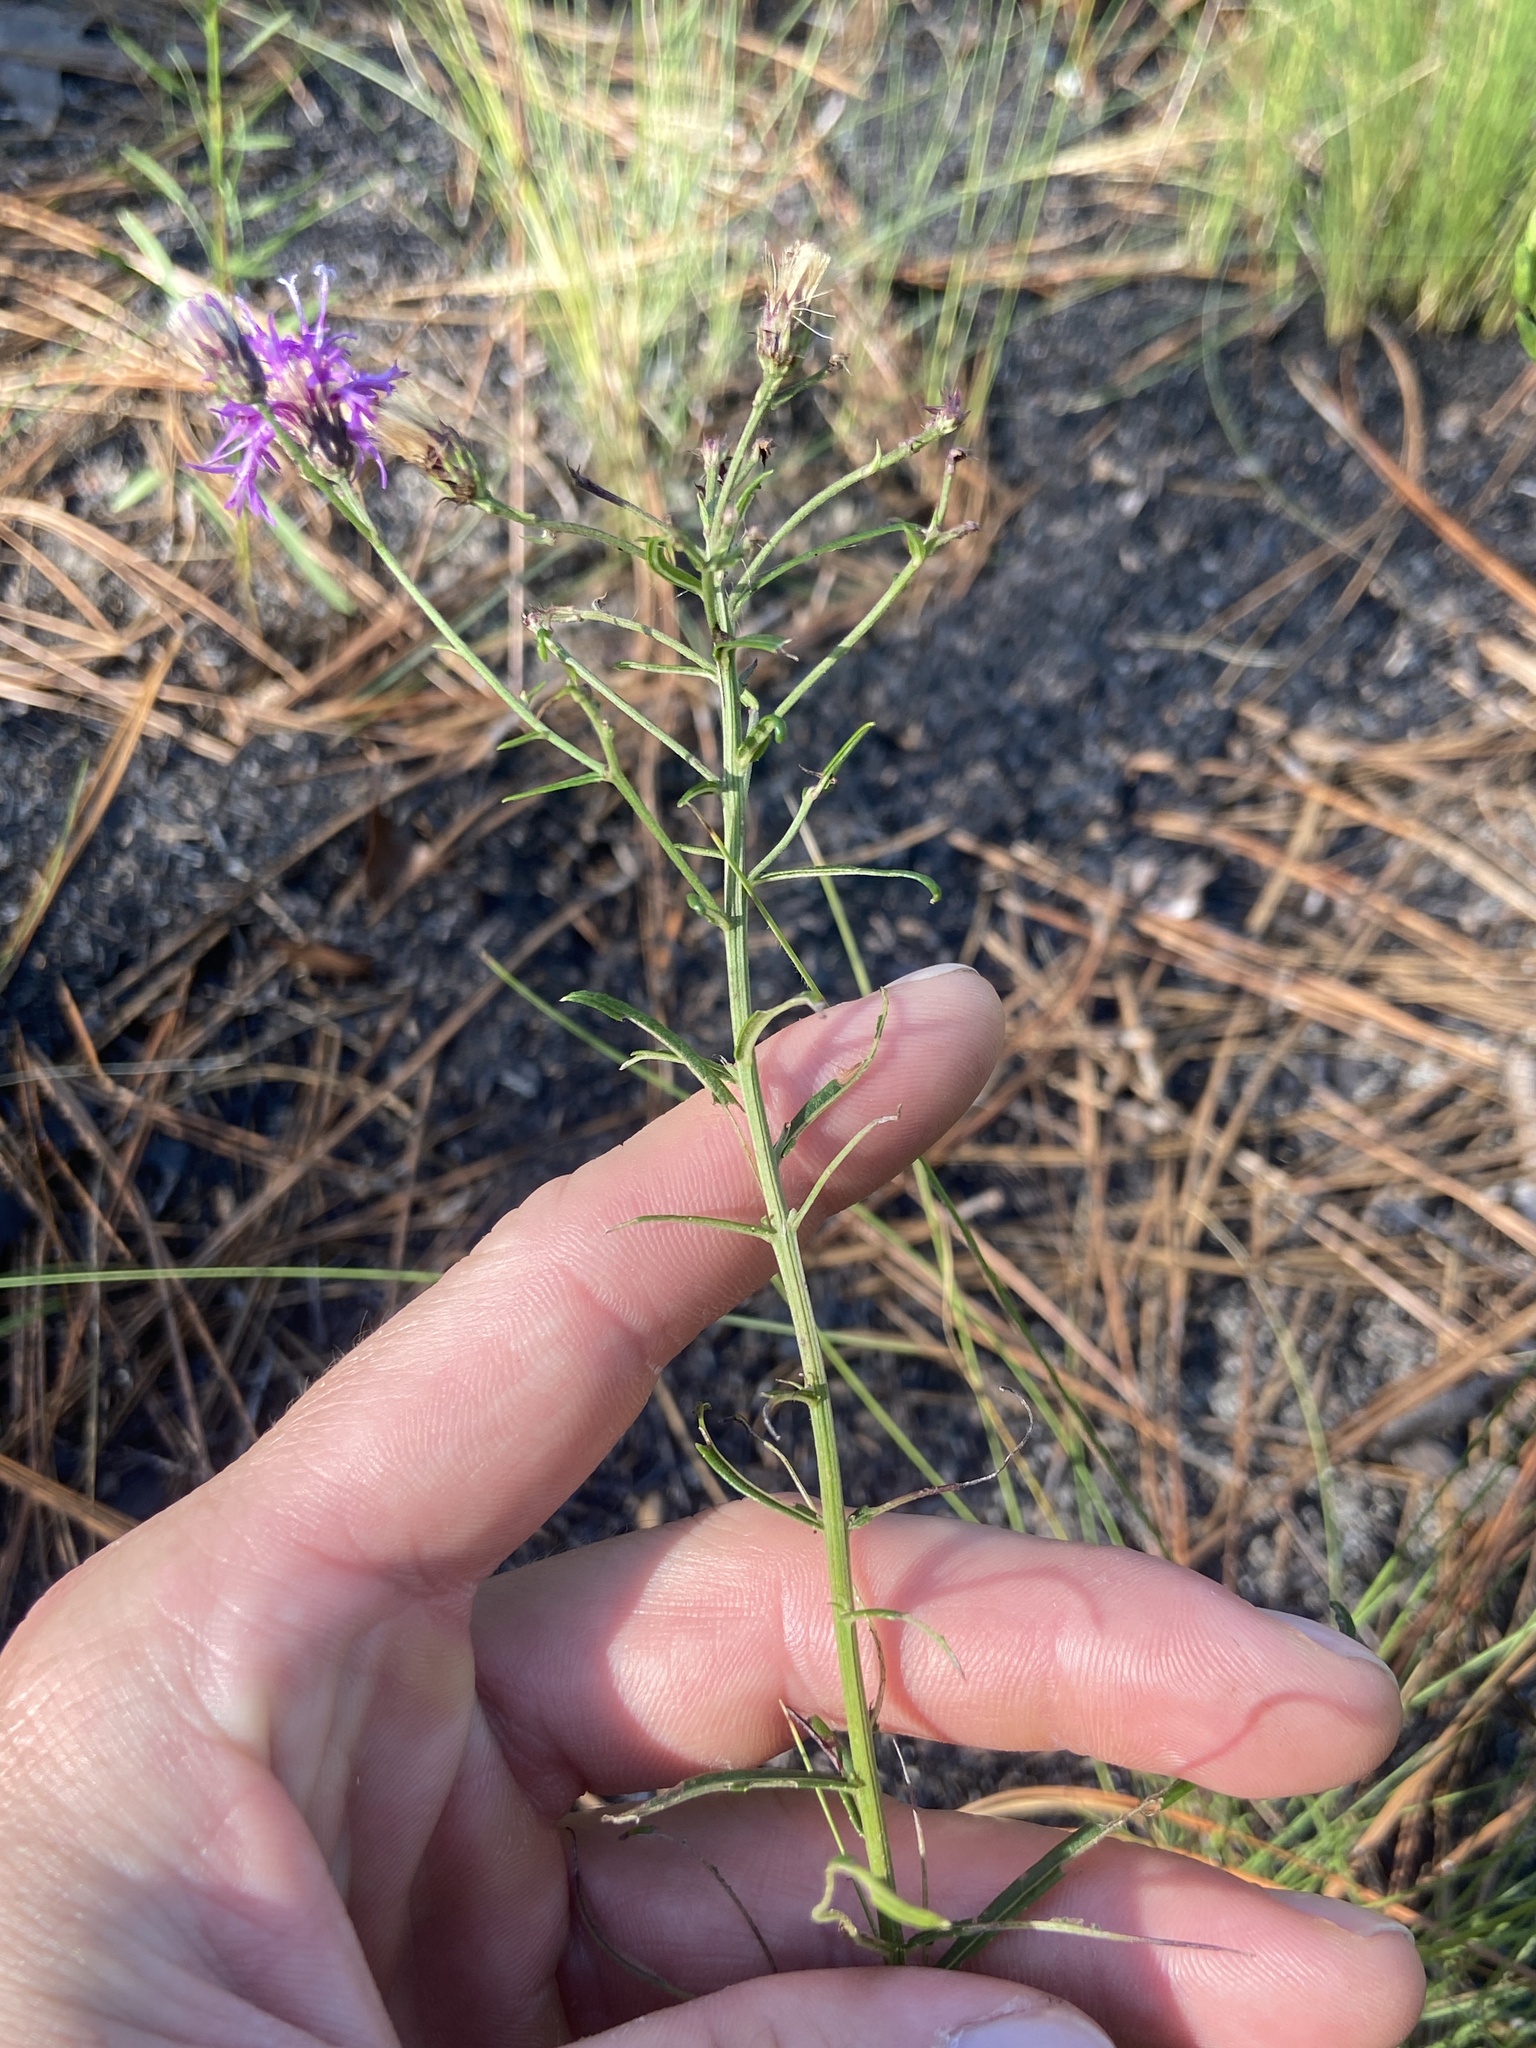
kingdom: Plantae
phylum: Tracheophyta
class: Magnoliopsida
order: Asterales
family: Asteraceae
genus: Vernonia
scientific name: Vernonia angustifolia
